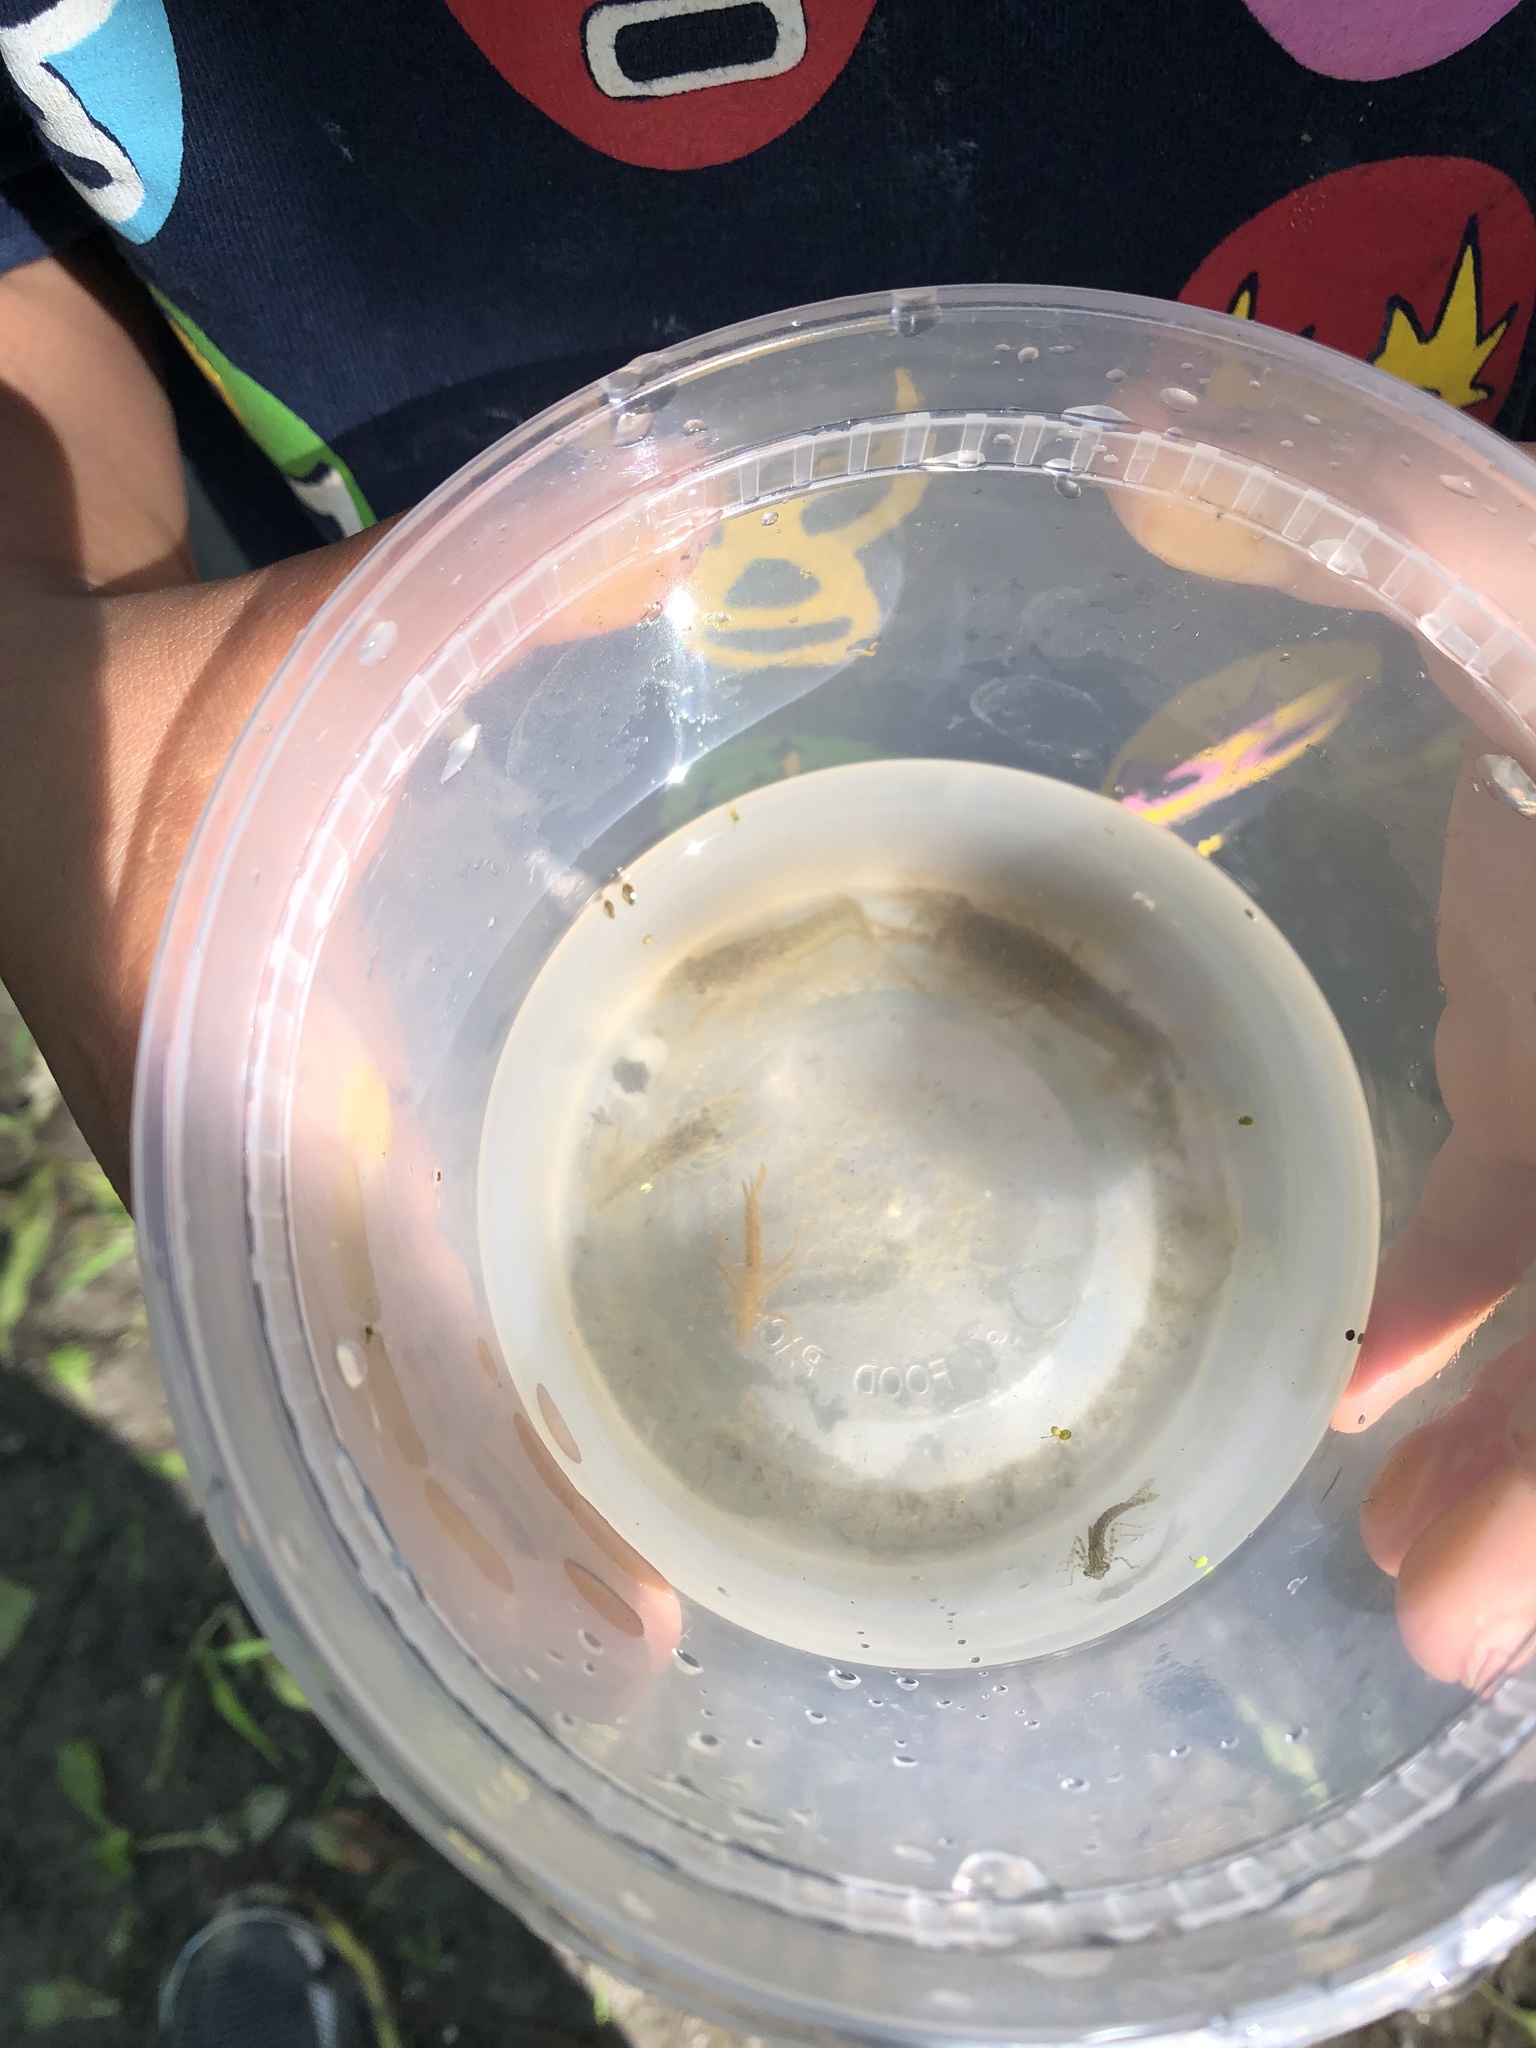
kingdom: Animalia
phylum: Arthropoda
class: Malacostraca
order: Decapoda
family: Cambaridae
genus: Procambarus
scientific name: Procambarus clarkii
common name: Red swamp crayfish
